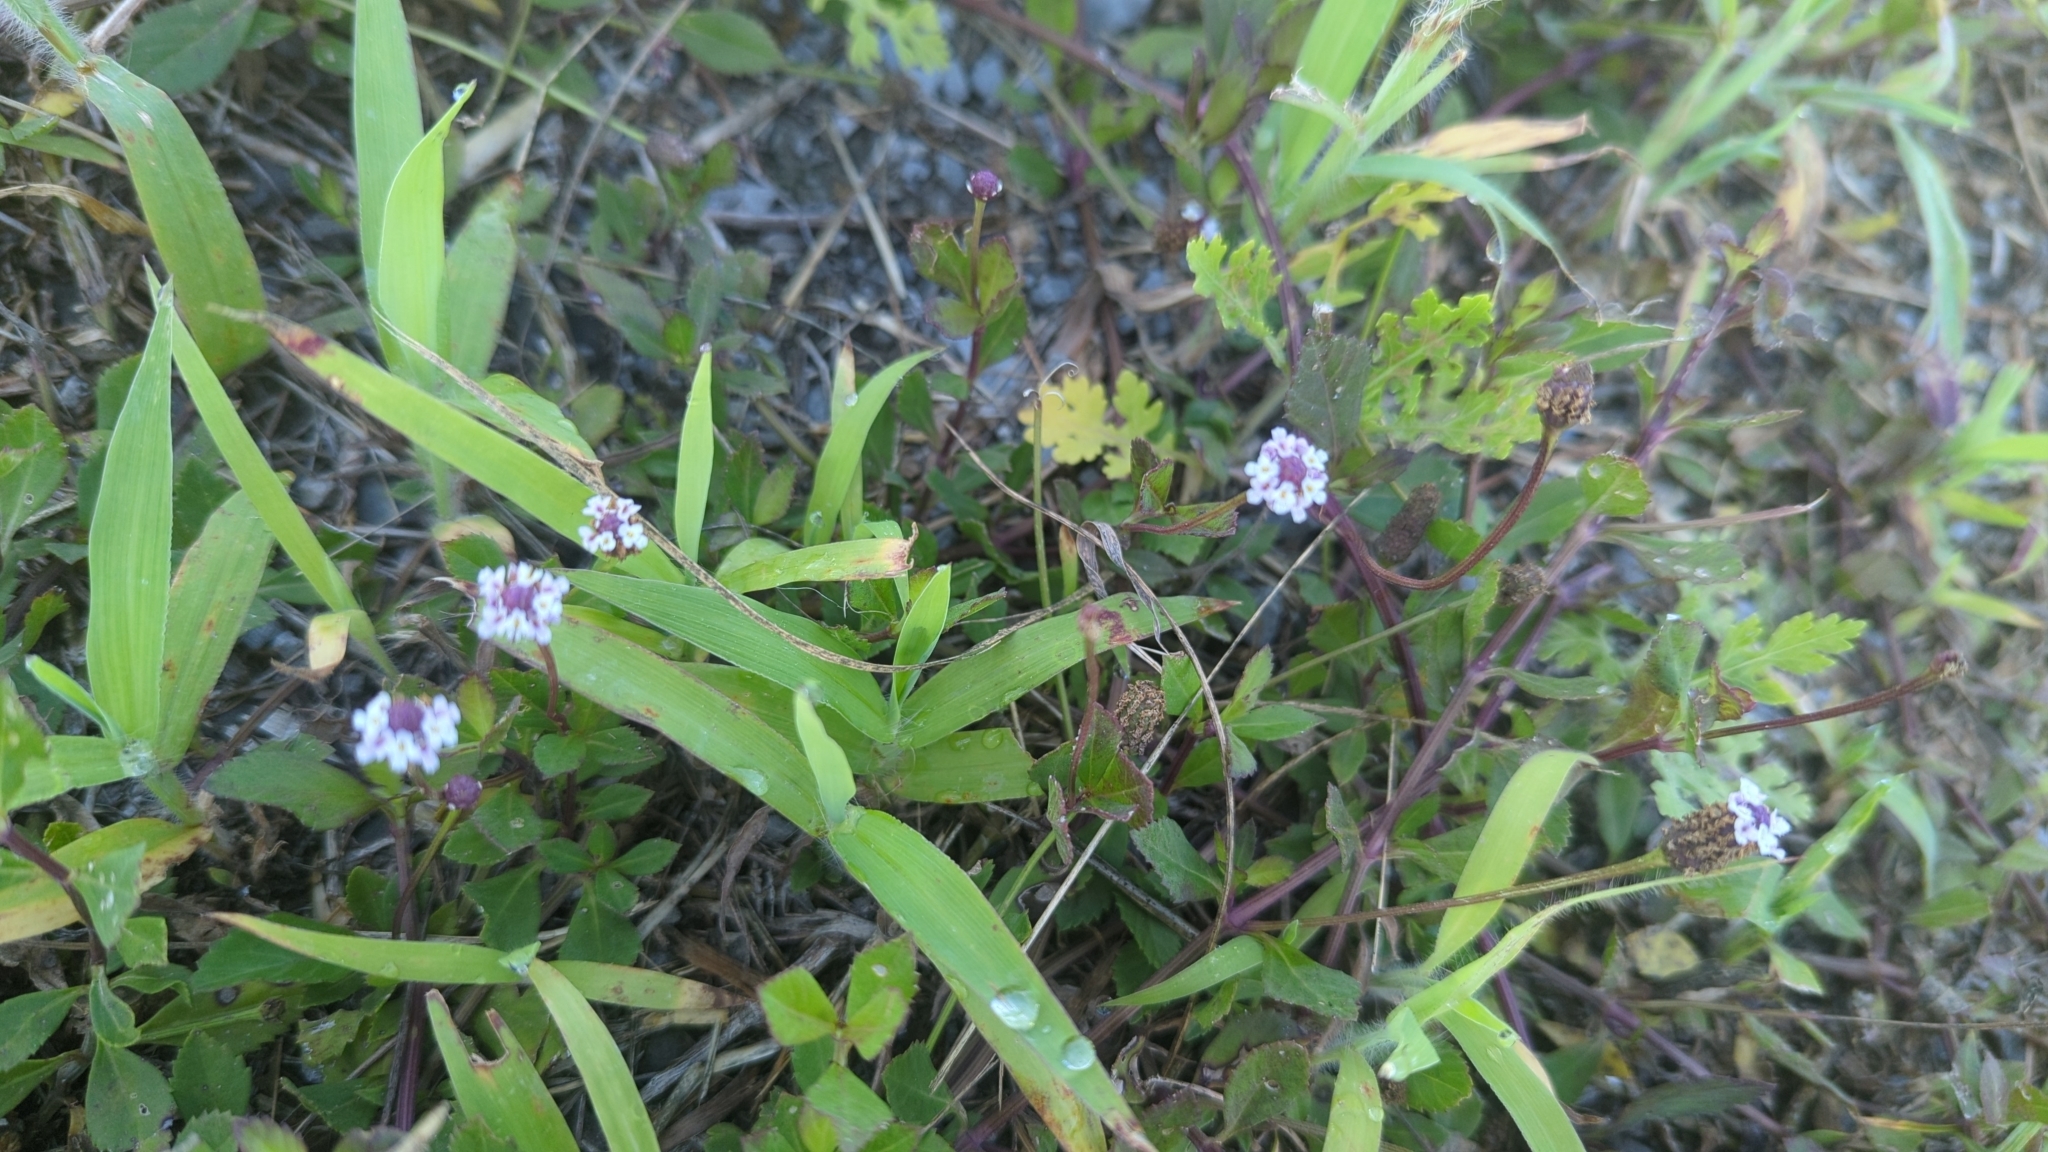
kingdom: Plantae
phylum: Tracheophyta
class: Magnoliopsida
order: Lamiales
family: Verbenaceae
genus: Phyla
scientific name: Phyla nodiflora
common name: Frogfruit
